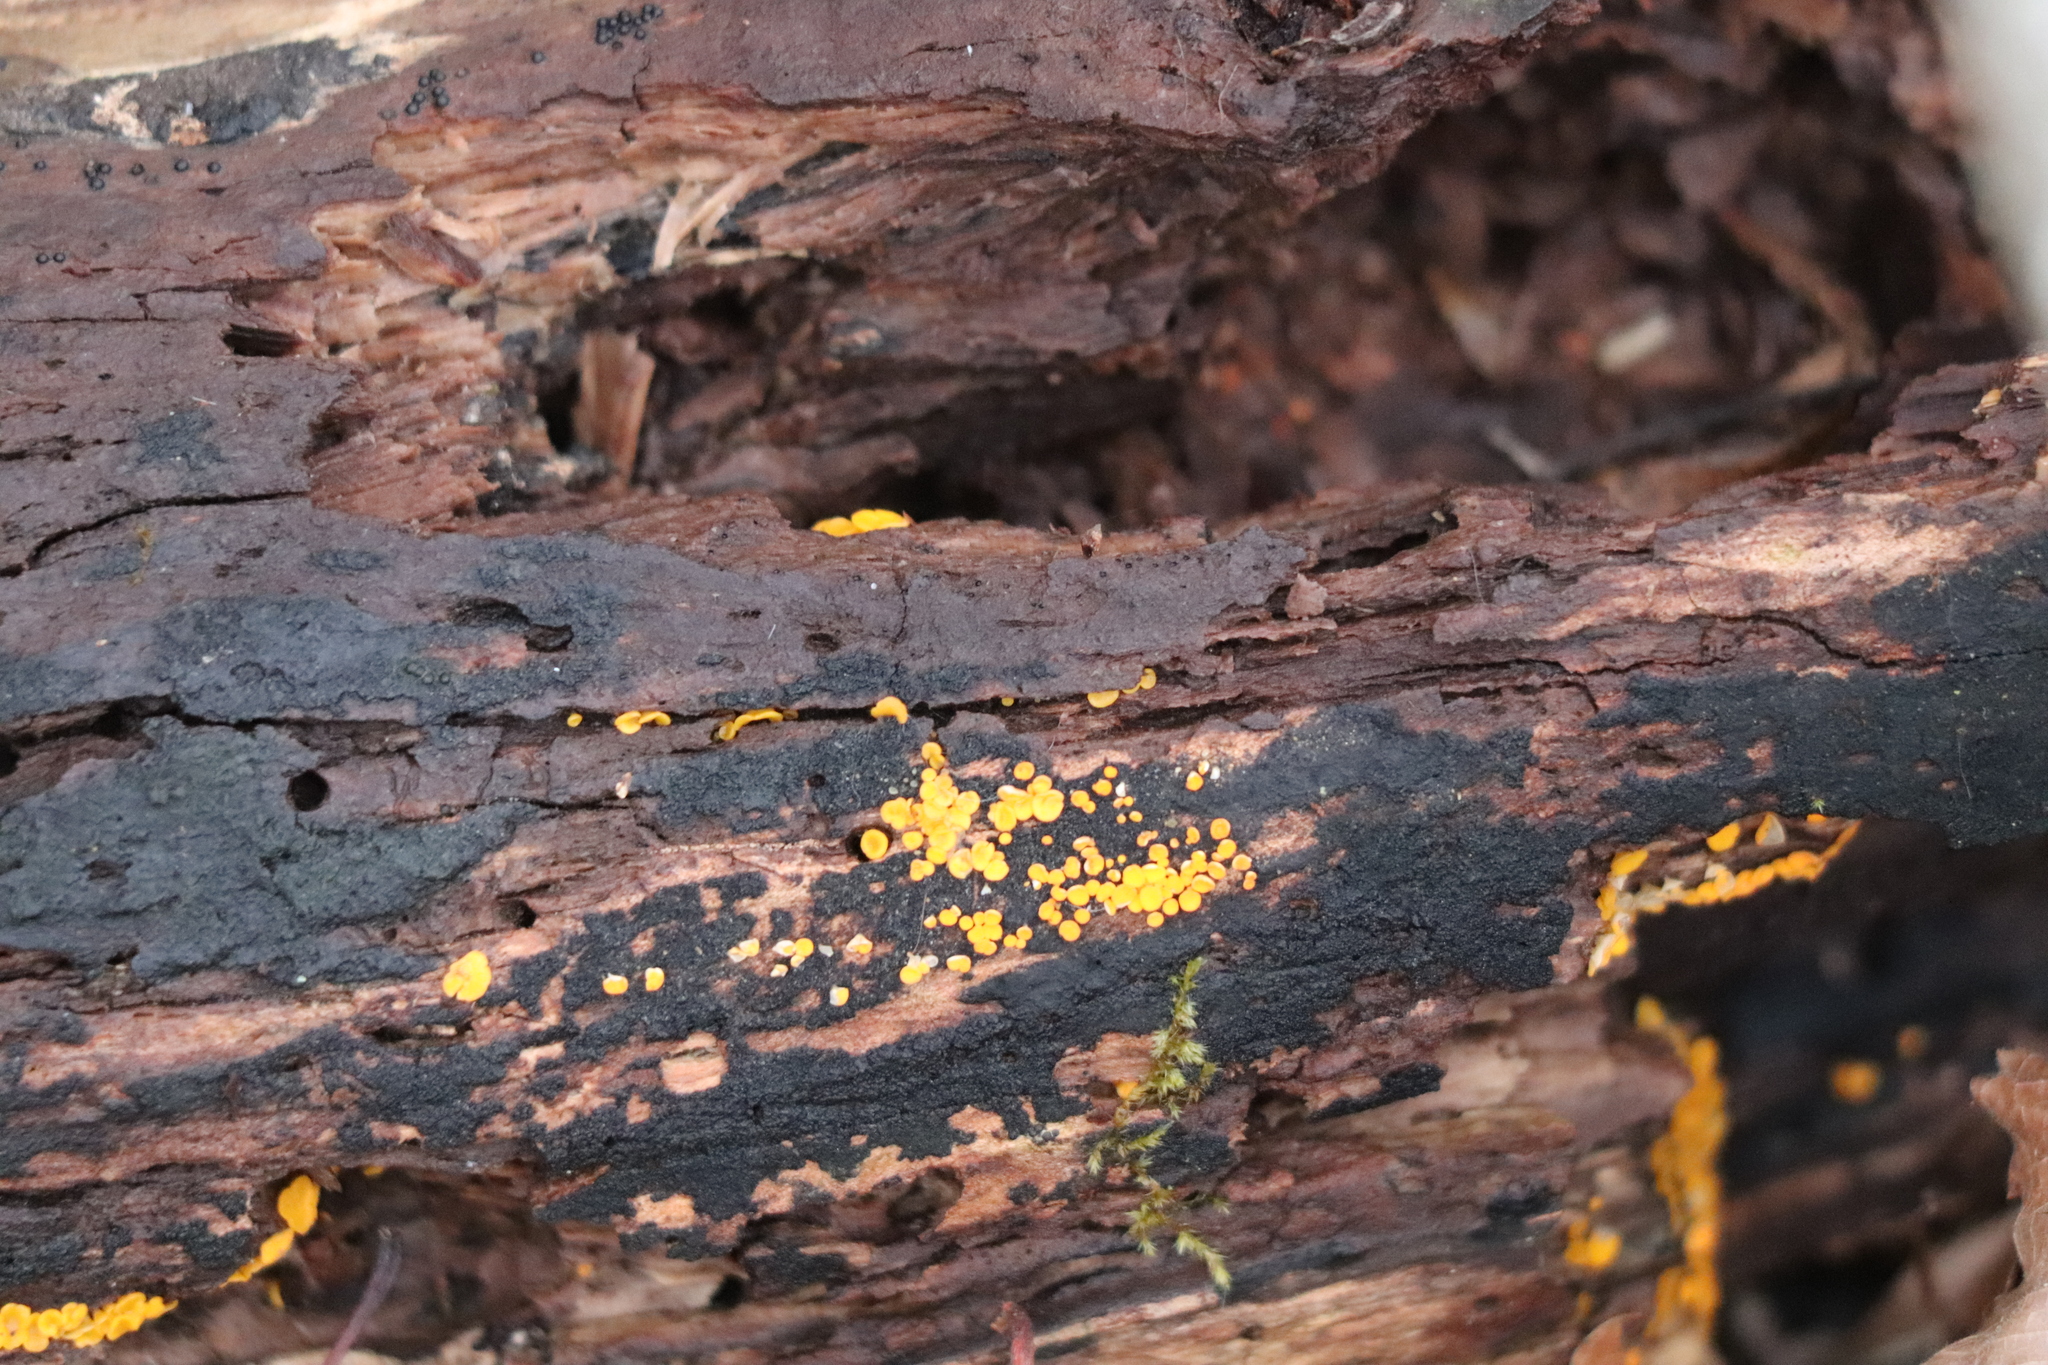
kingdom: Fungi
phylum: Ascomycota
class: Leotiomycetes
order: Helotiales
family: Pezizellaceae
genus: Calycina
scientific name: Calycina citrina
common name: Yellow fairy cups
